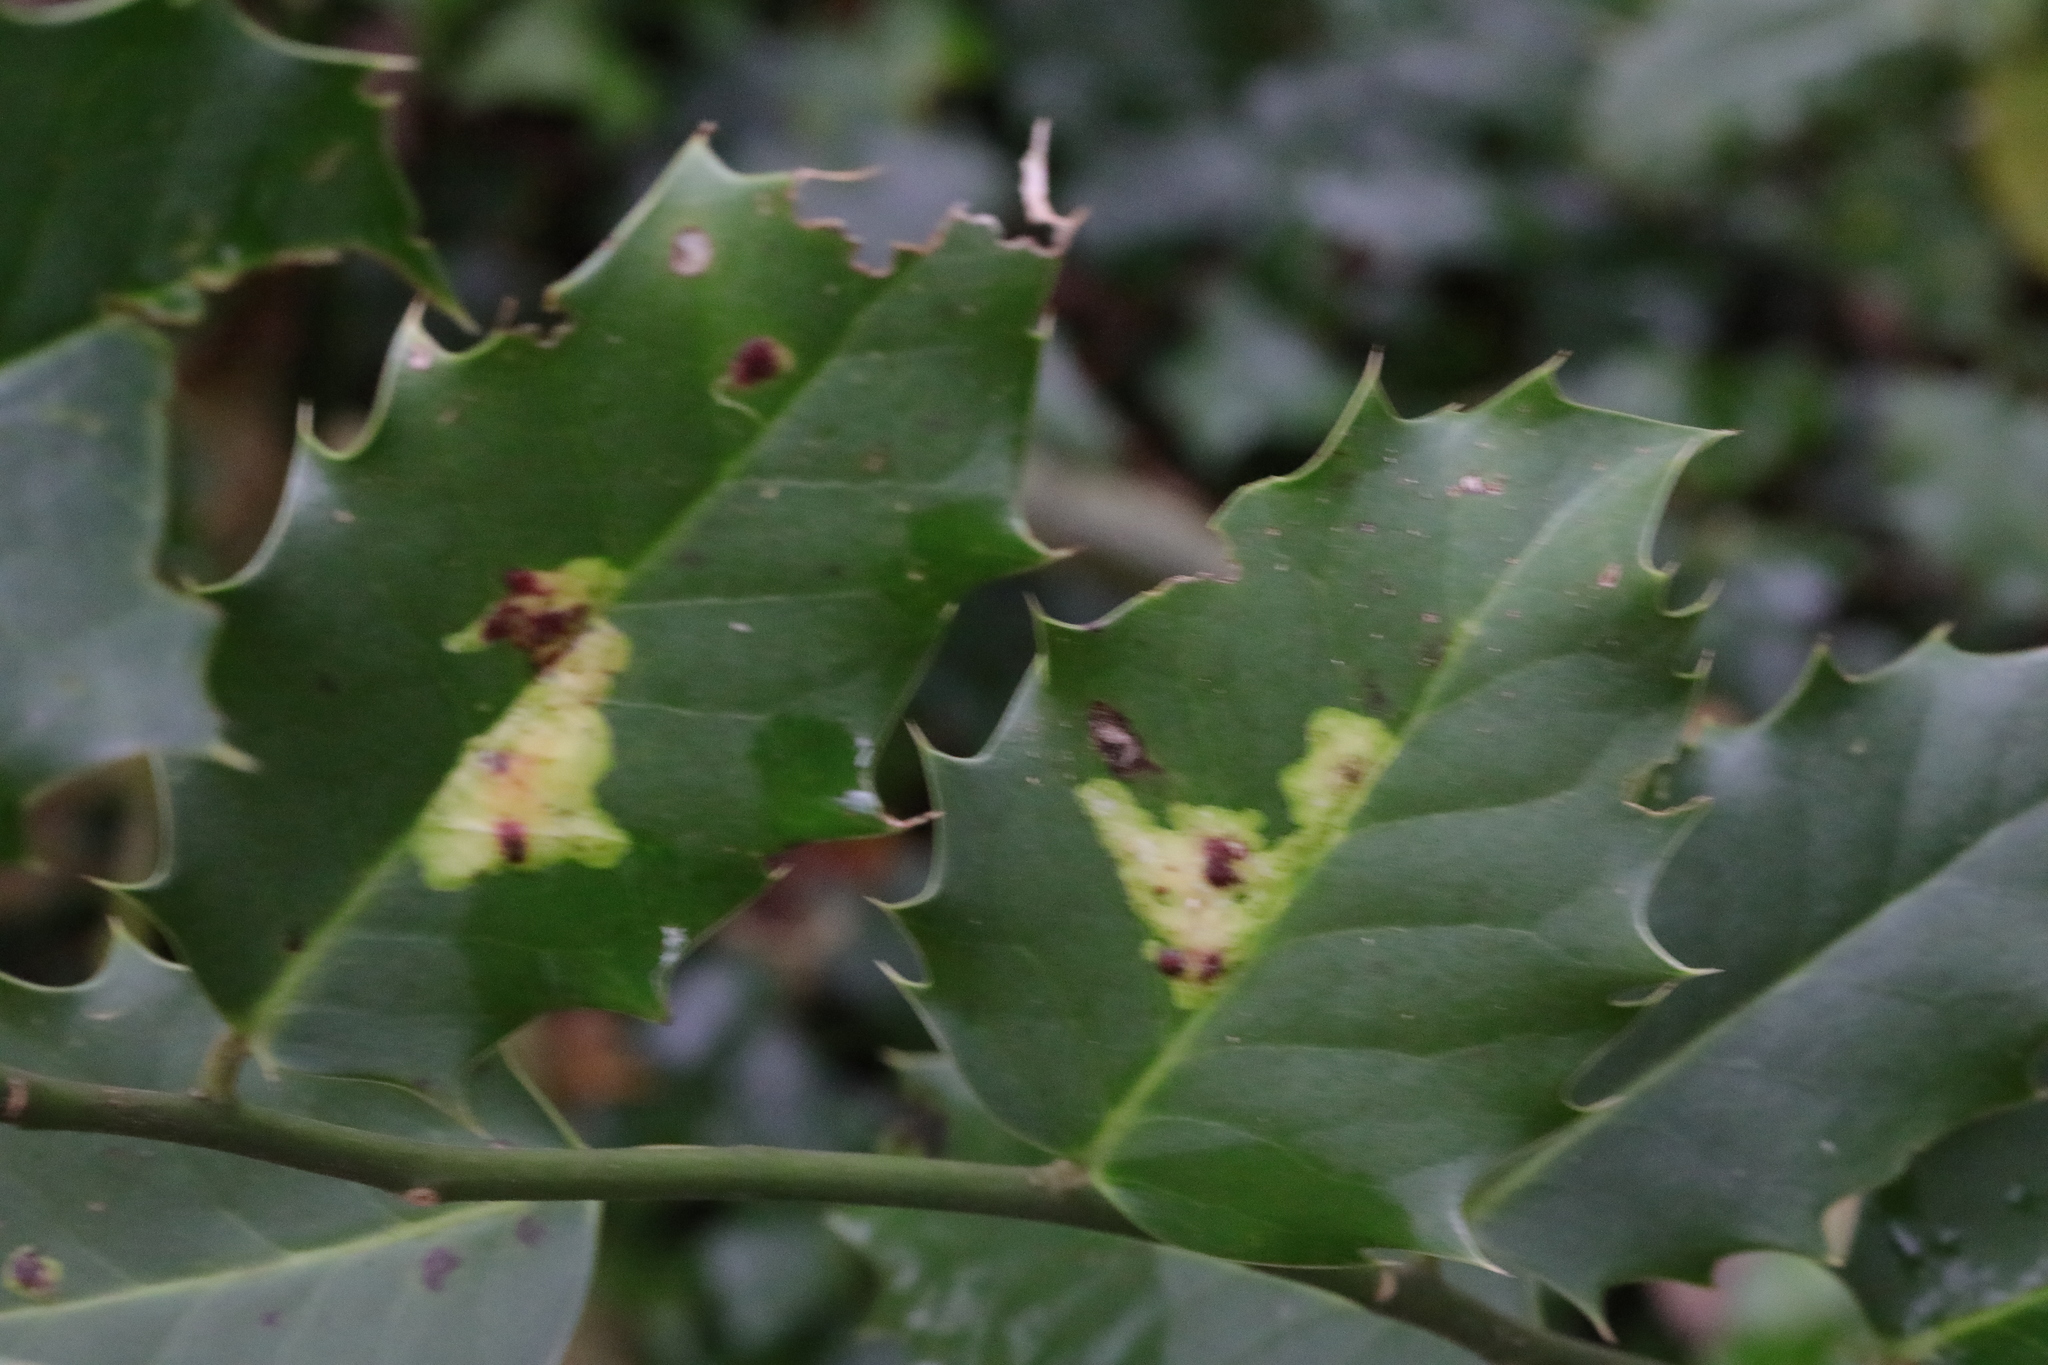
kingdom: Animalia
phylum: Arthropoda
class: Insecta
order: Diptera
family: Agromyzidae
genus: Phytomyza
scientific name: Phytomyza ilicis
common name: Holly leafminer
